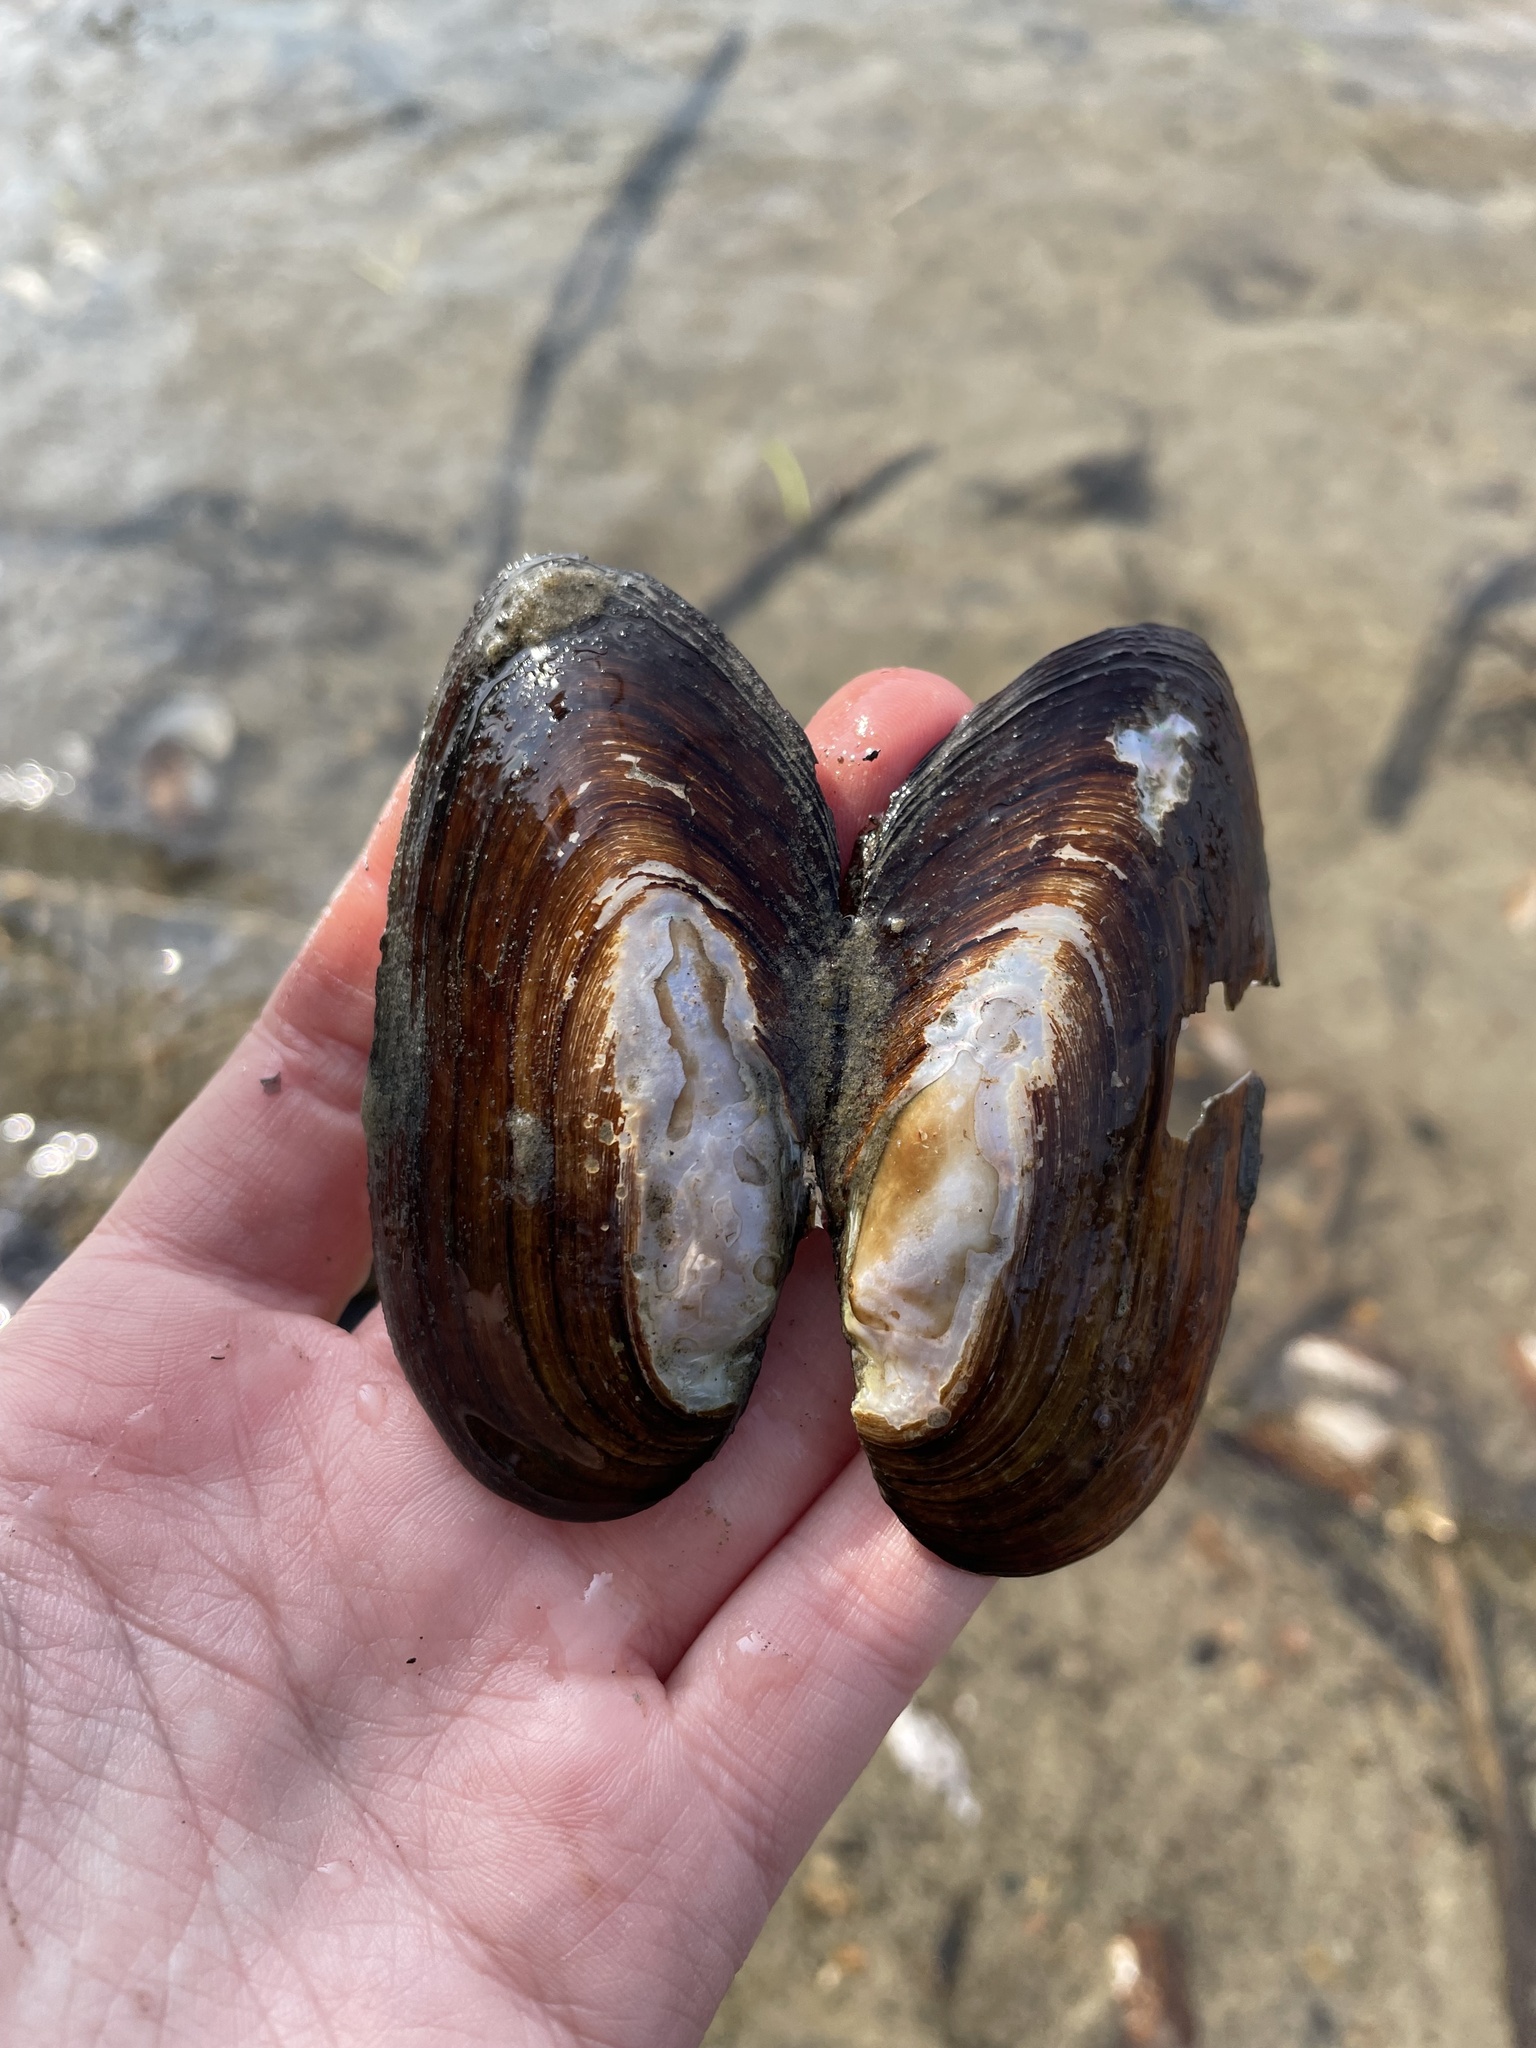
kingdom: Animalia
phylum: Mollusca
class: Bivalvia
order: Unionida
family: Unionidae
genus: Elliptio
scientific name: Elliptio complanata
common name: Eastern elliptio
